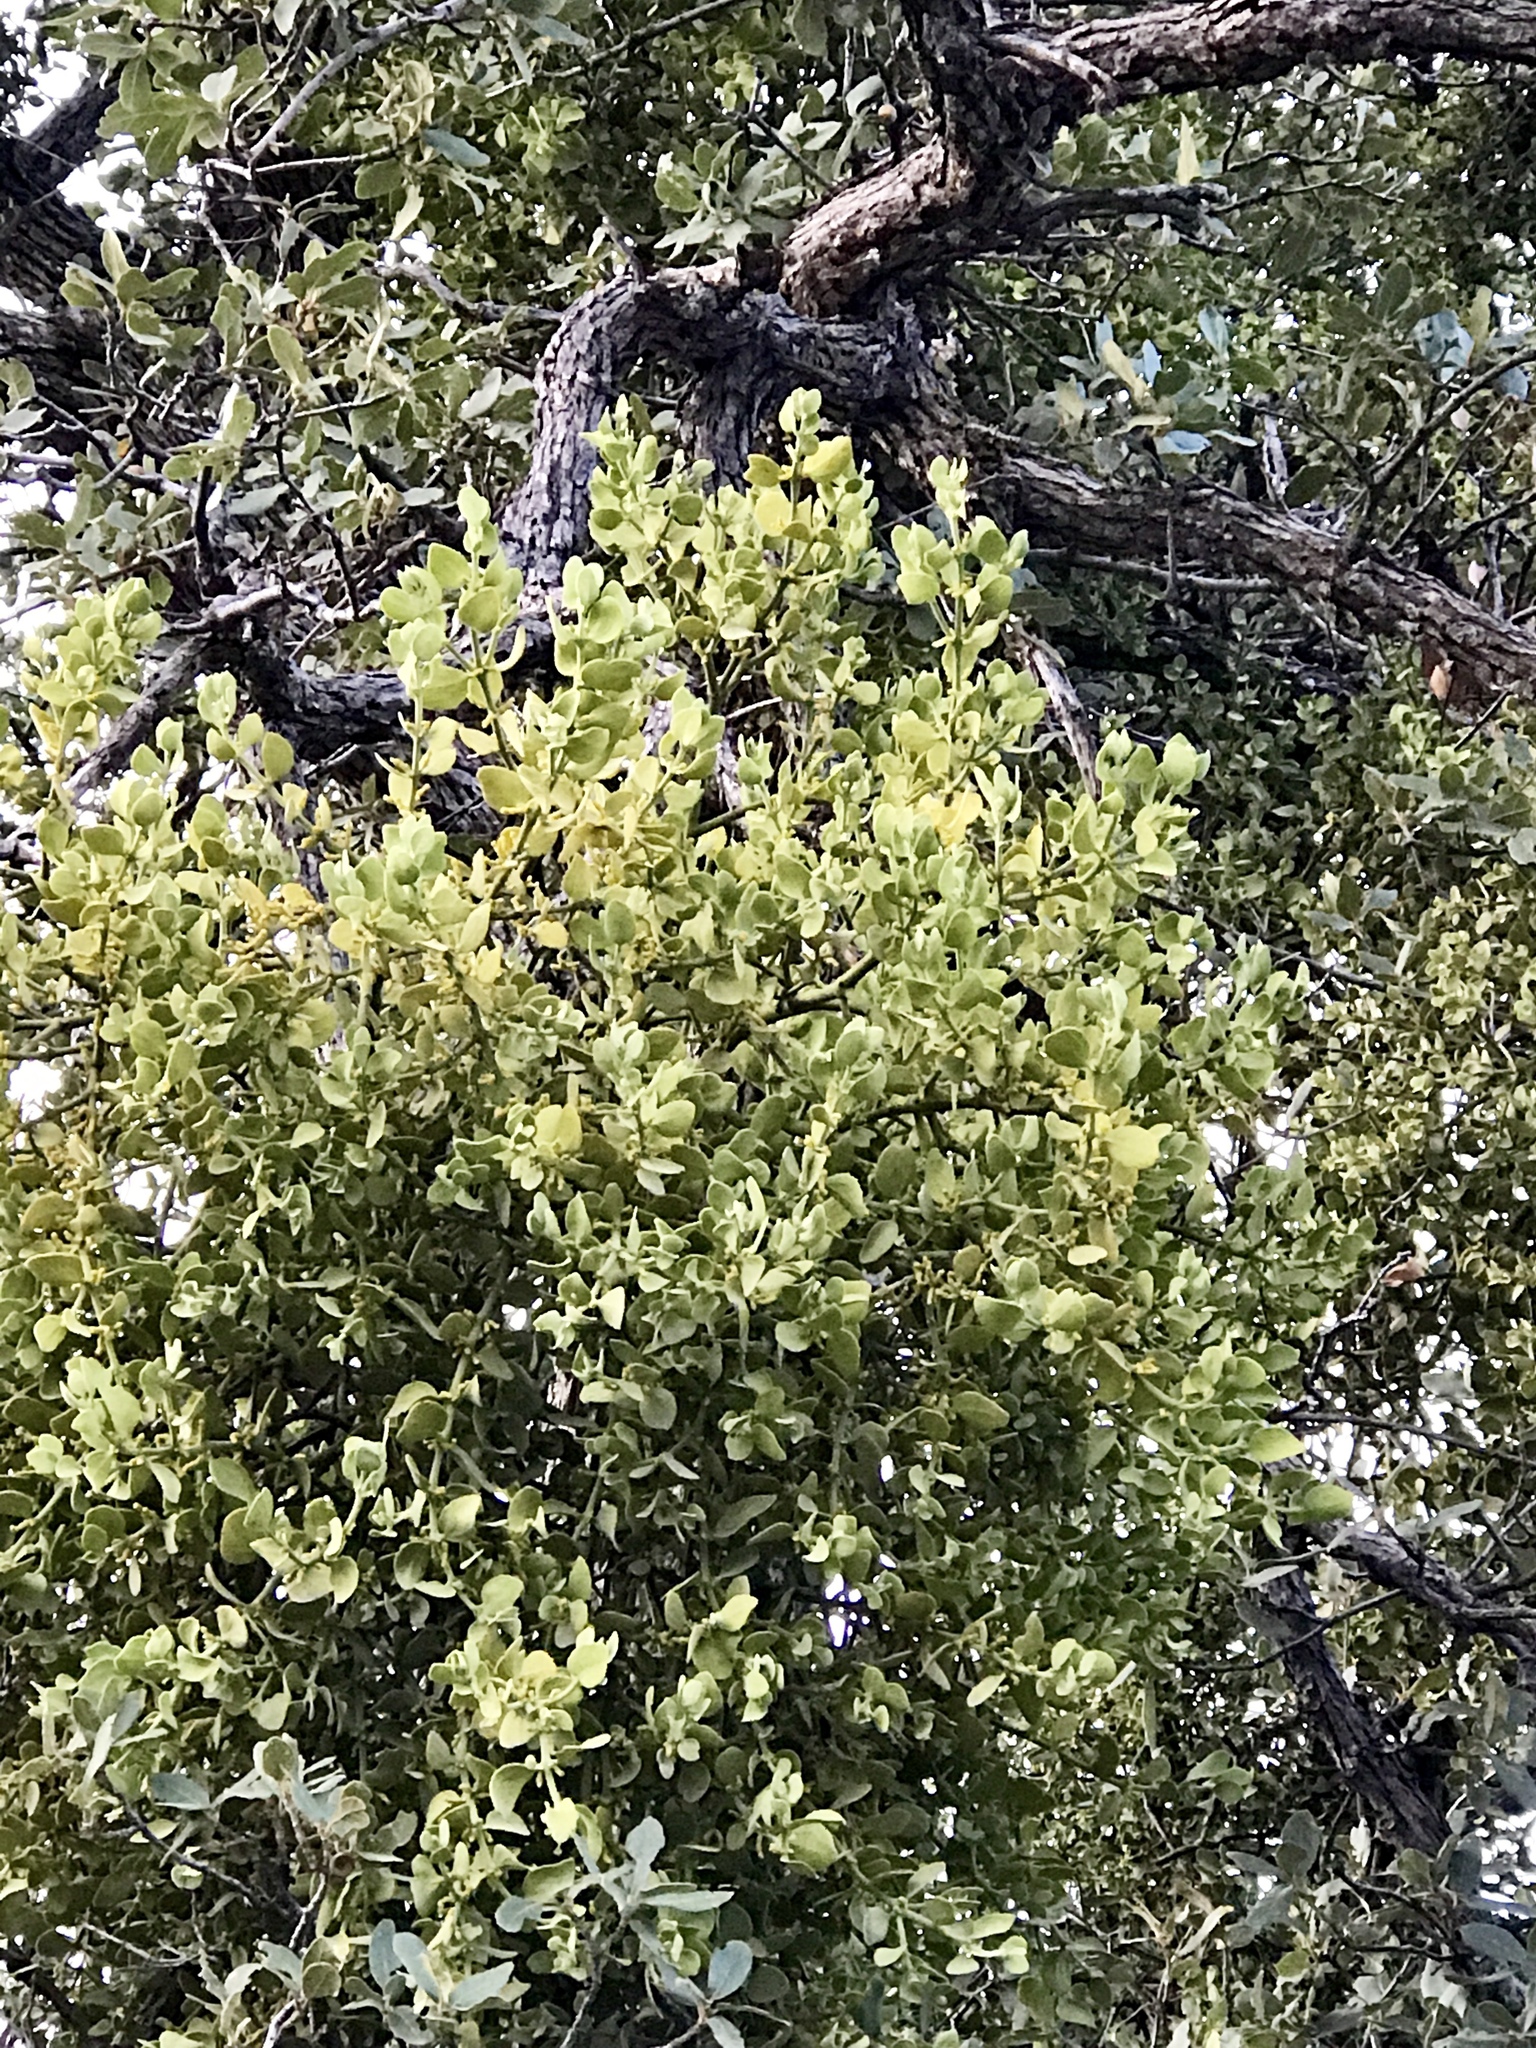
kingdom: Plantae
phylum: Tracheophyta
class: Magnoliopsida
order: Santalales
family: Viscaceae
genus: Phoradendron
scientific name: Phoradendron coryae
